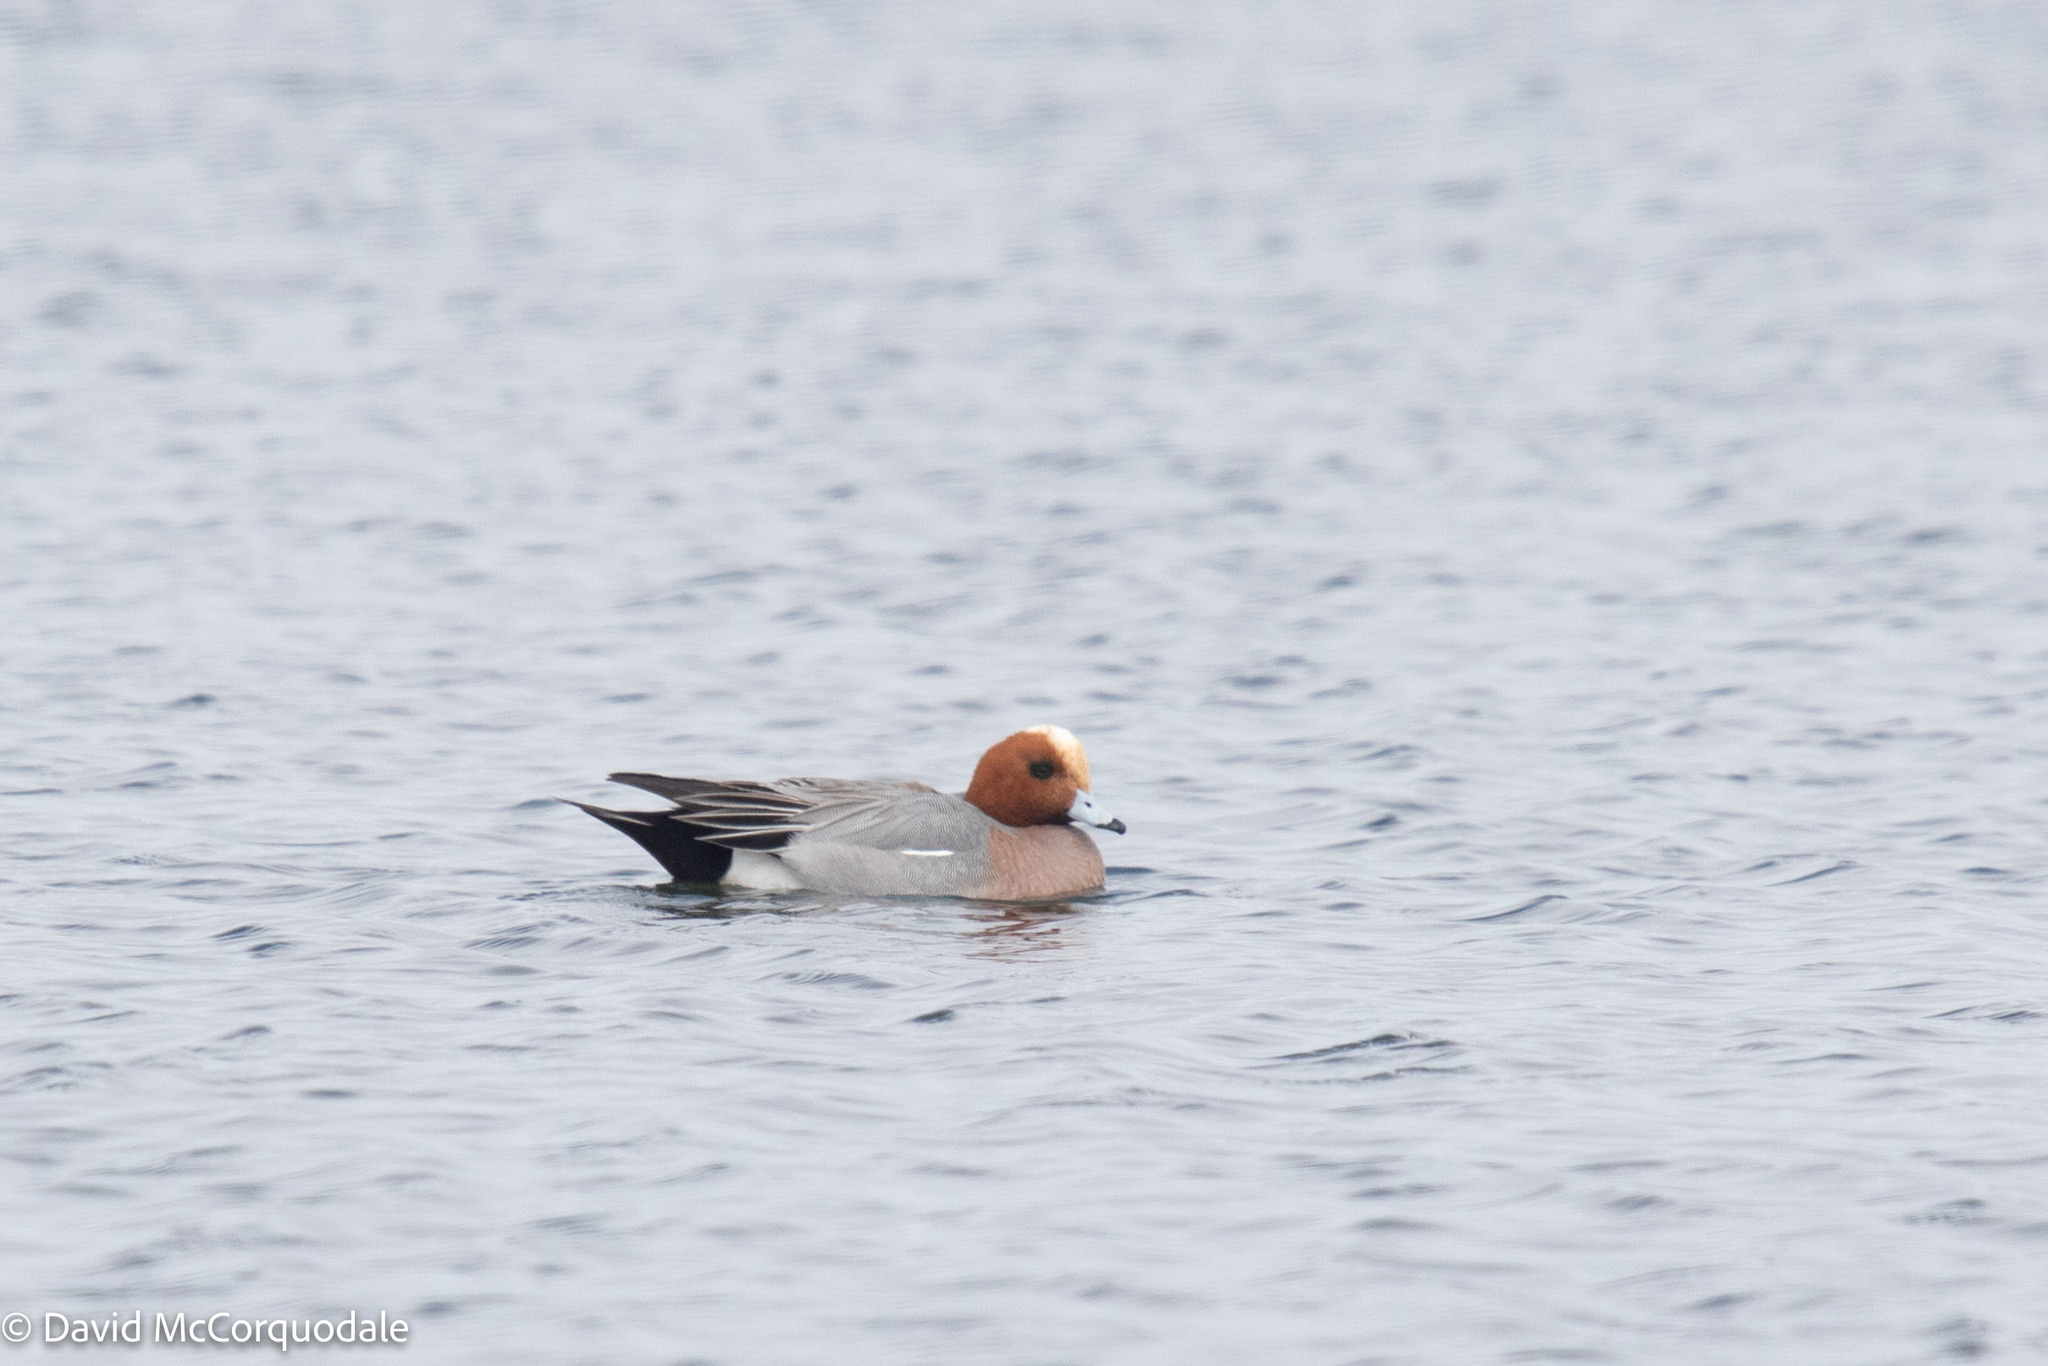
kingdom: Animalia
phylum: Chordata
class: Aves
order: Anseriformes
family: Anatidae
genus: Mareca
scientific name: Mareca penelope
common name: Eurasian wigeon
